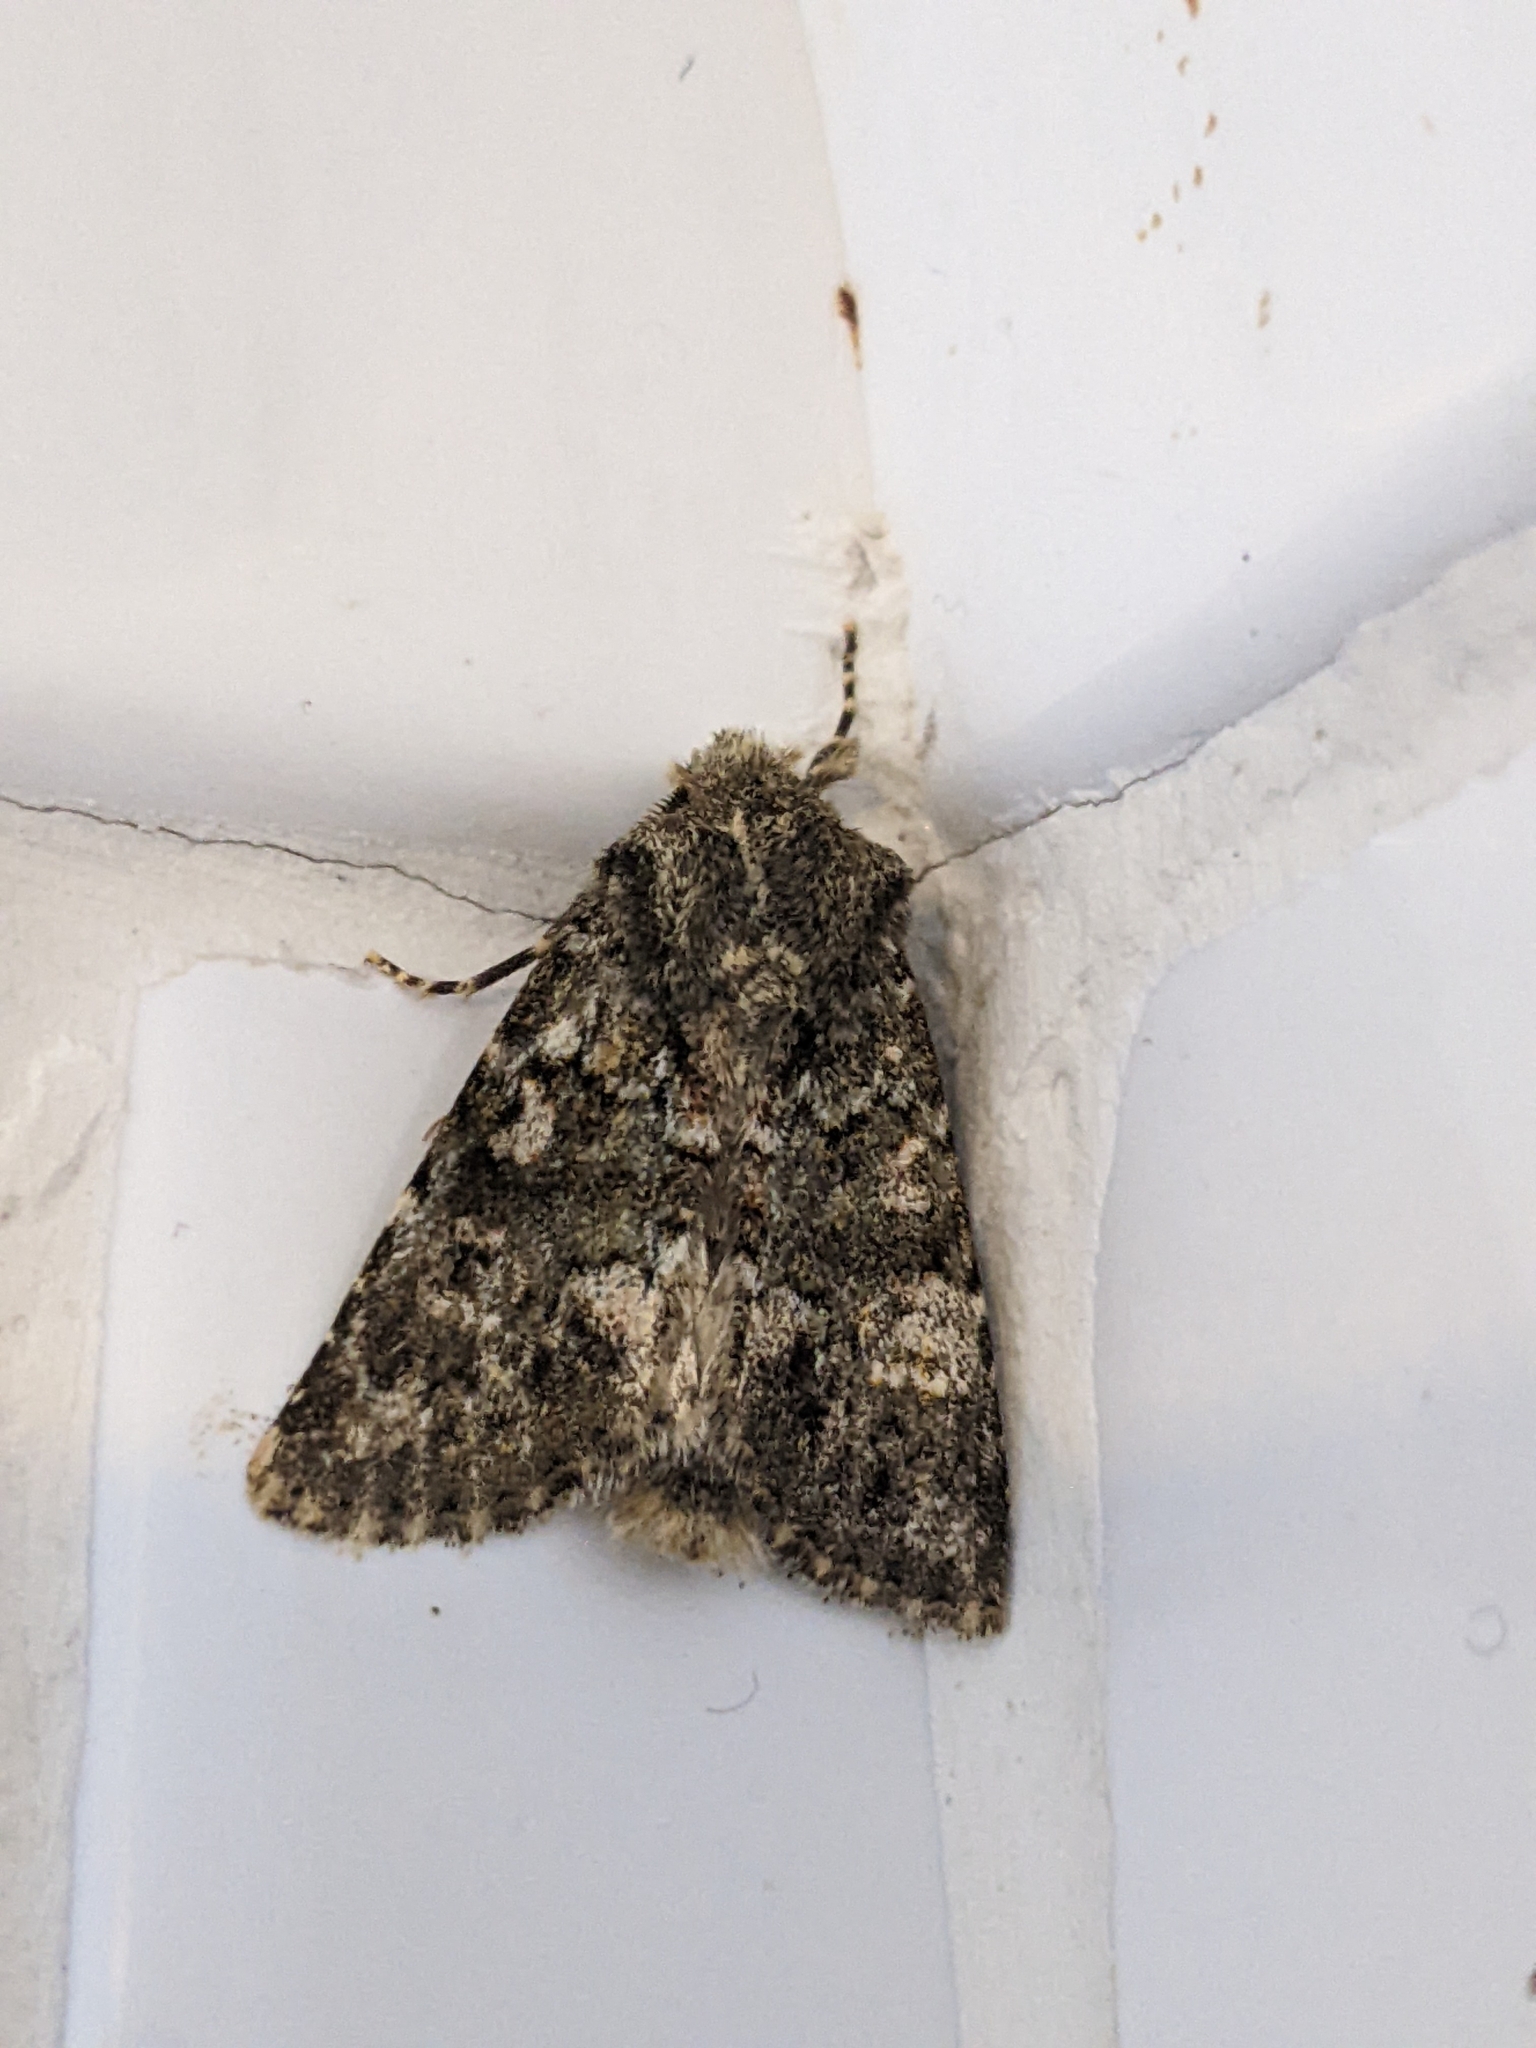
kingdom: Animalia
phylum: Arthropoda
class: Insecta
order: Lepidoptera
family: Noctuidae
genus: Polymixis
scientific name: Polymixis lichenea
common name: Feathered ranunculus
